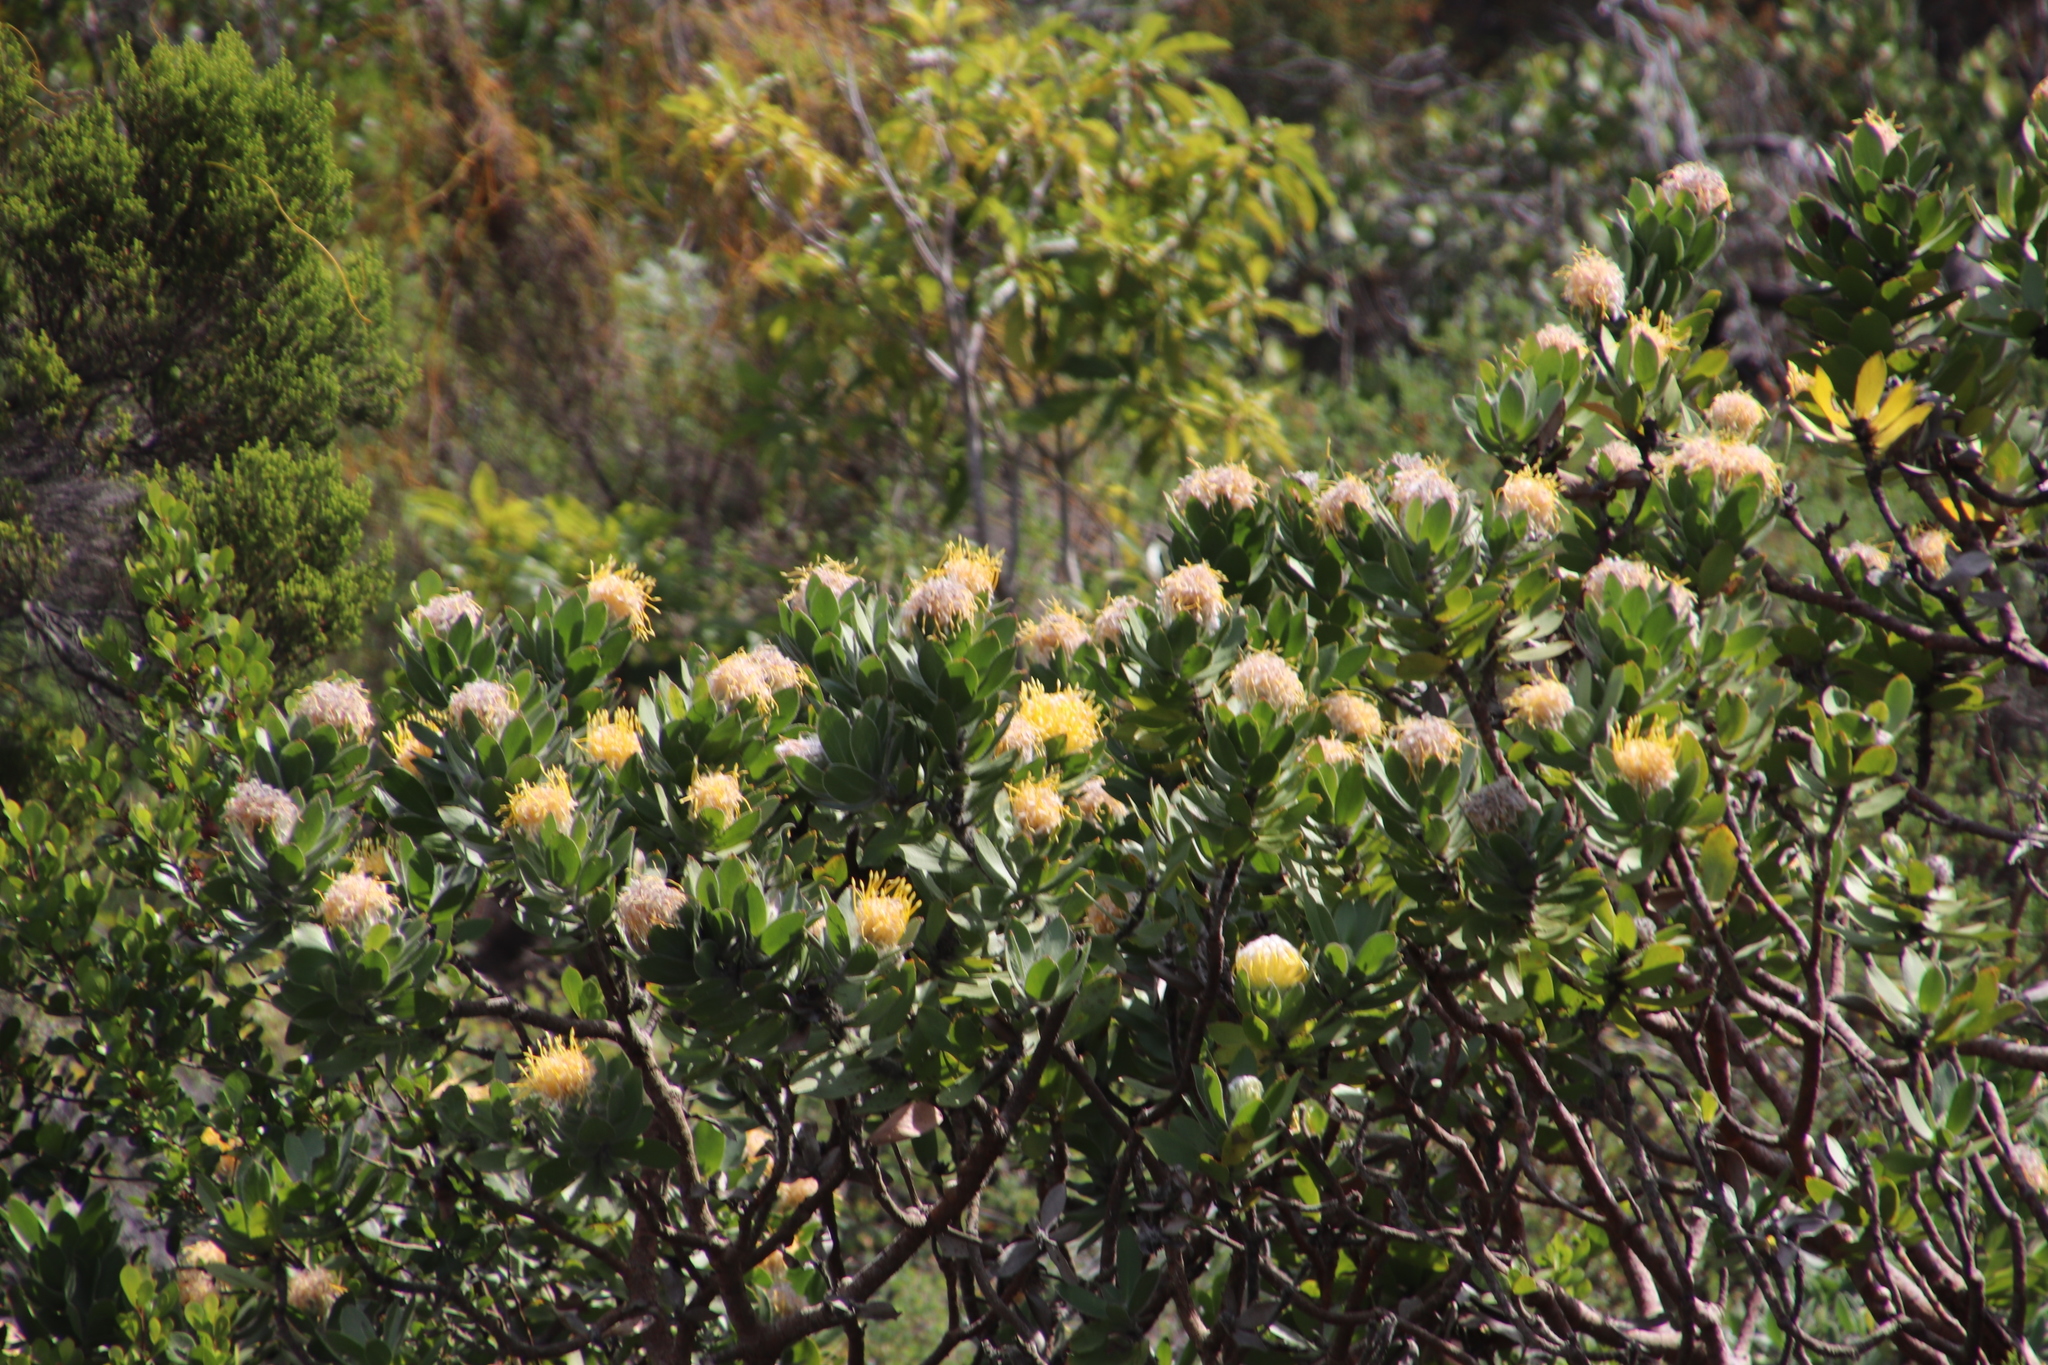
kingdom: Plantae
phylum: Tracheophyta
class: Magnoliopsida
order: Proteales
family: Proteaceae
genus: Leucospermum
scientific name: Leucospermum conocarpodendron
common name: Tree pincushion
